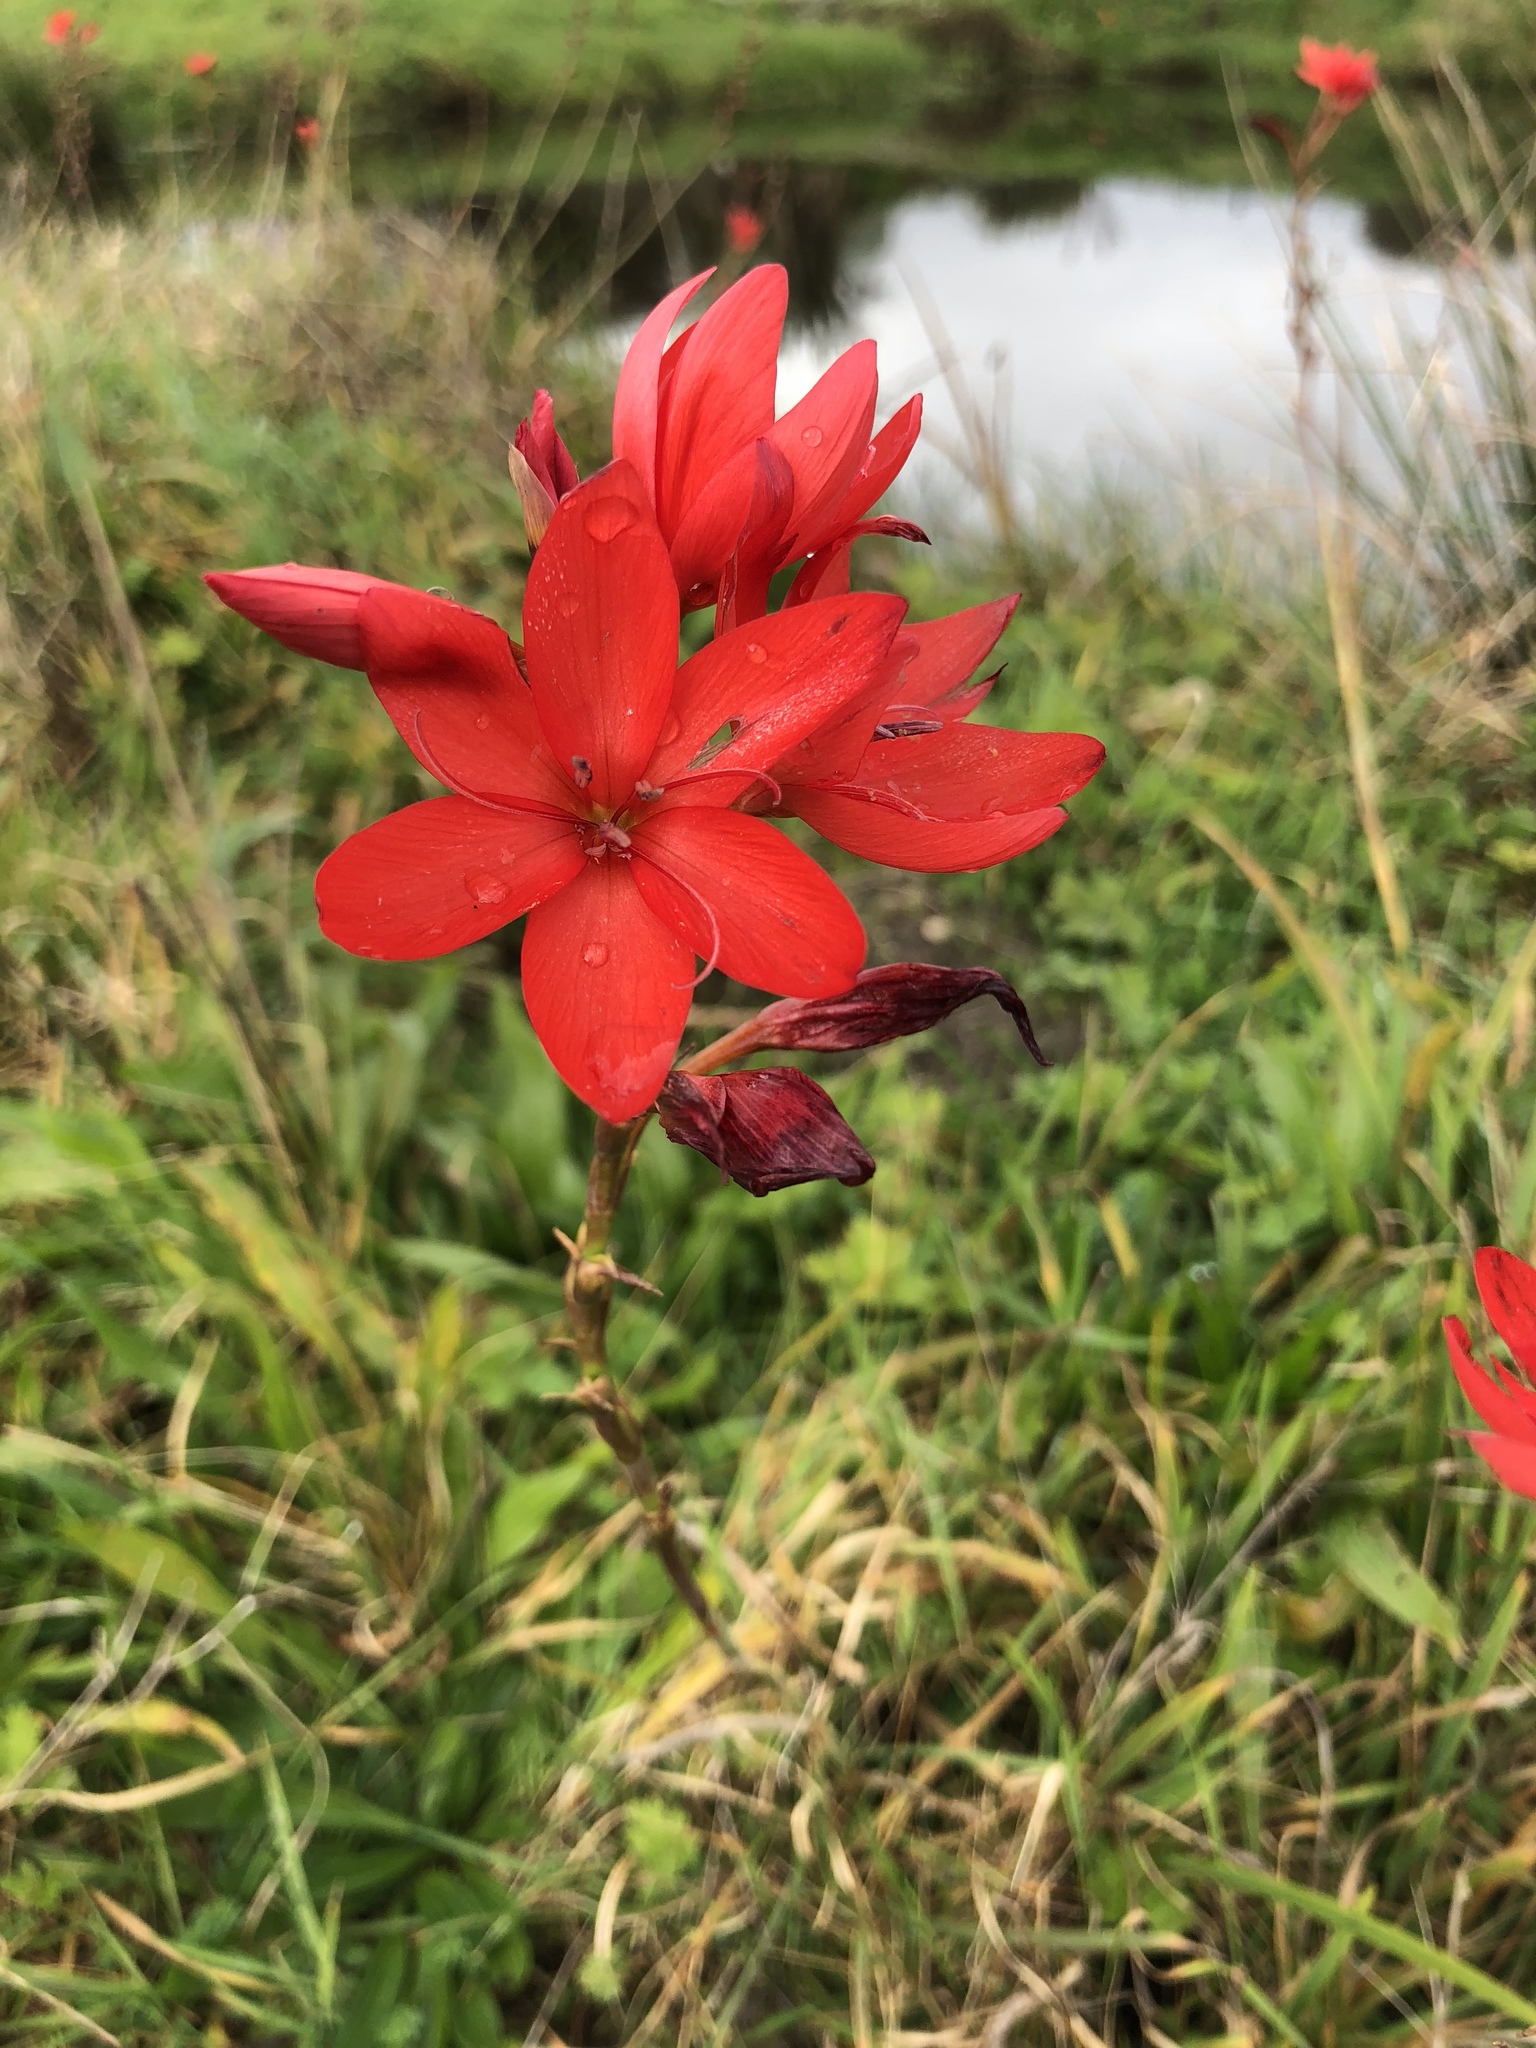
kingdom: Plantae
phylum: Tracheophyta
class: Liliopsida
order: Asparagales
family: Iridaceae
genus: Hesperantha
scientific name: Hesperantha coccinea
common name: River-lily
